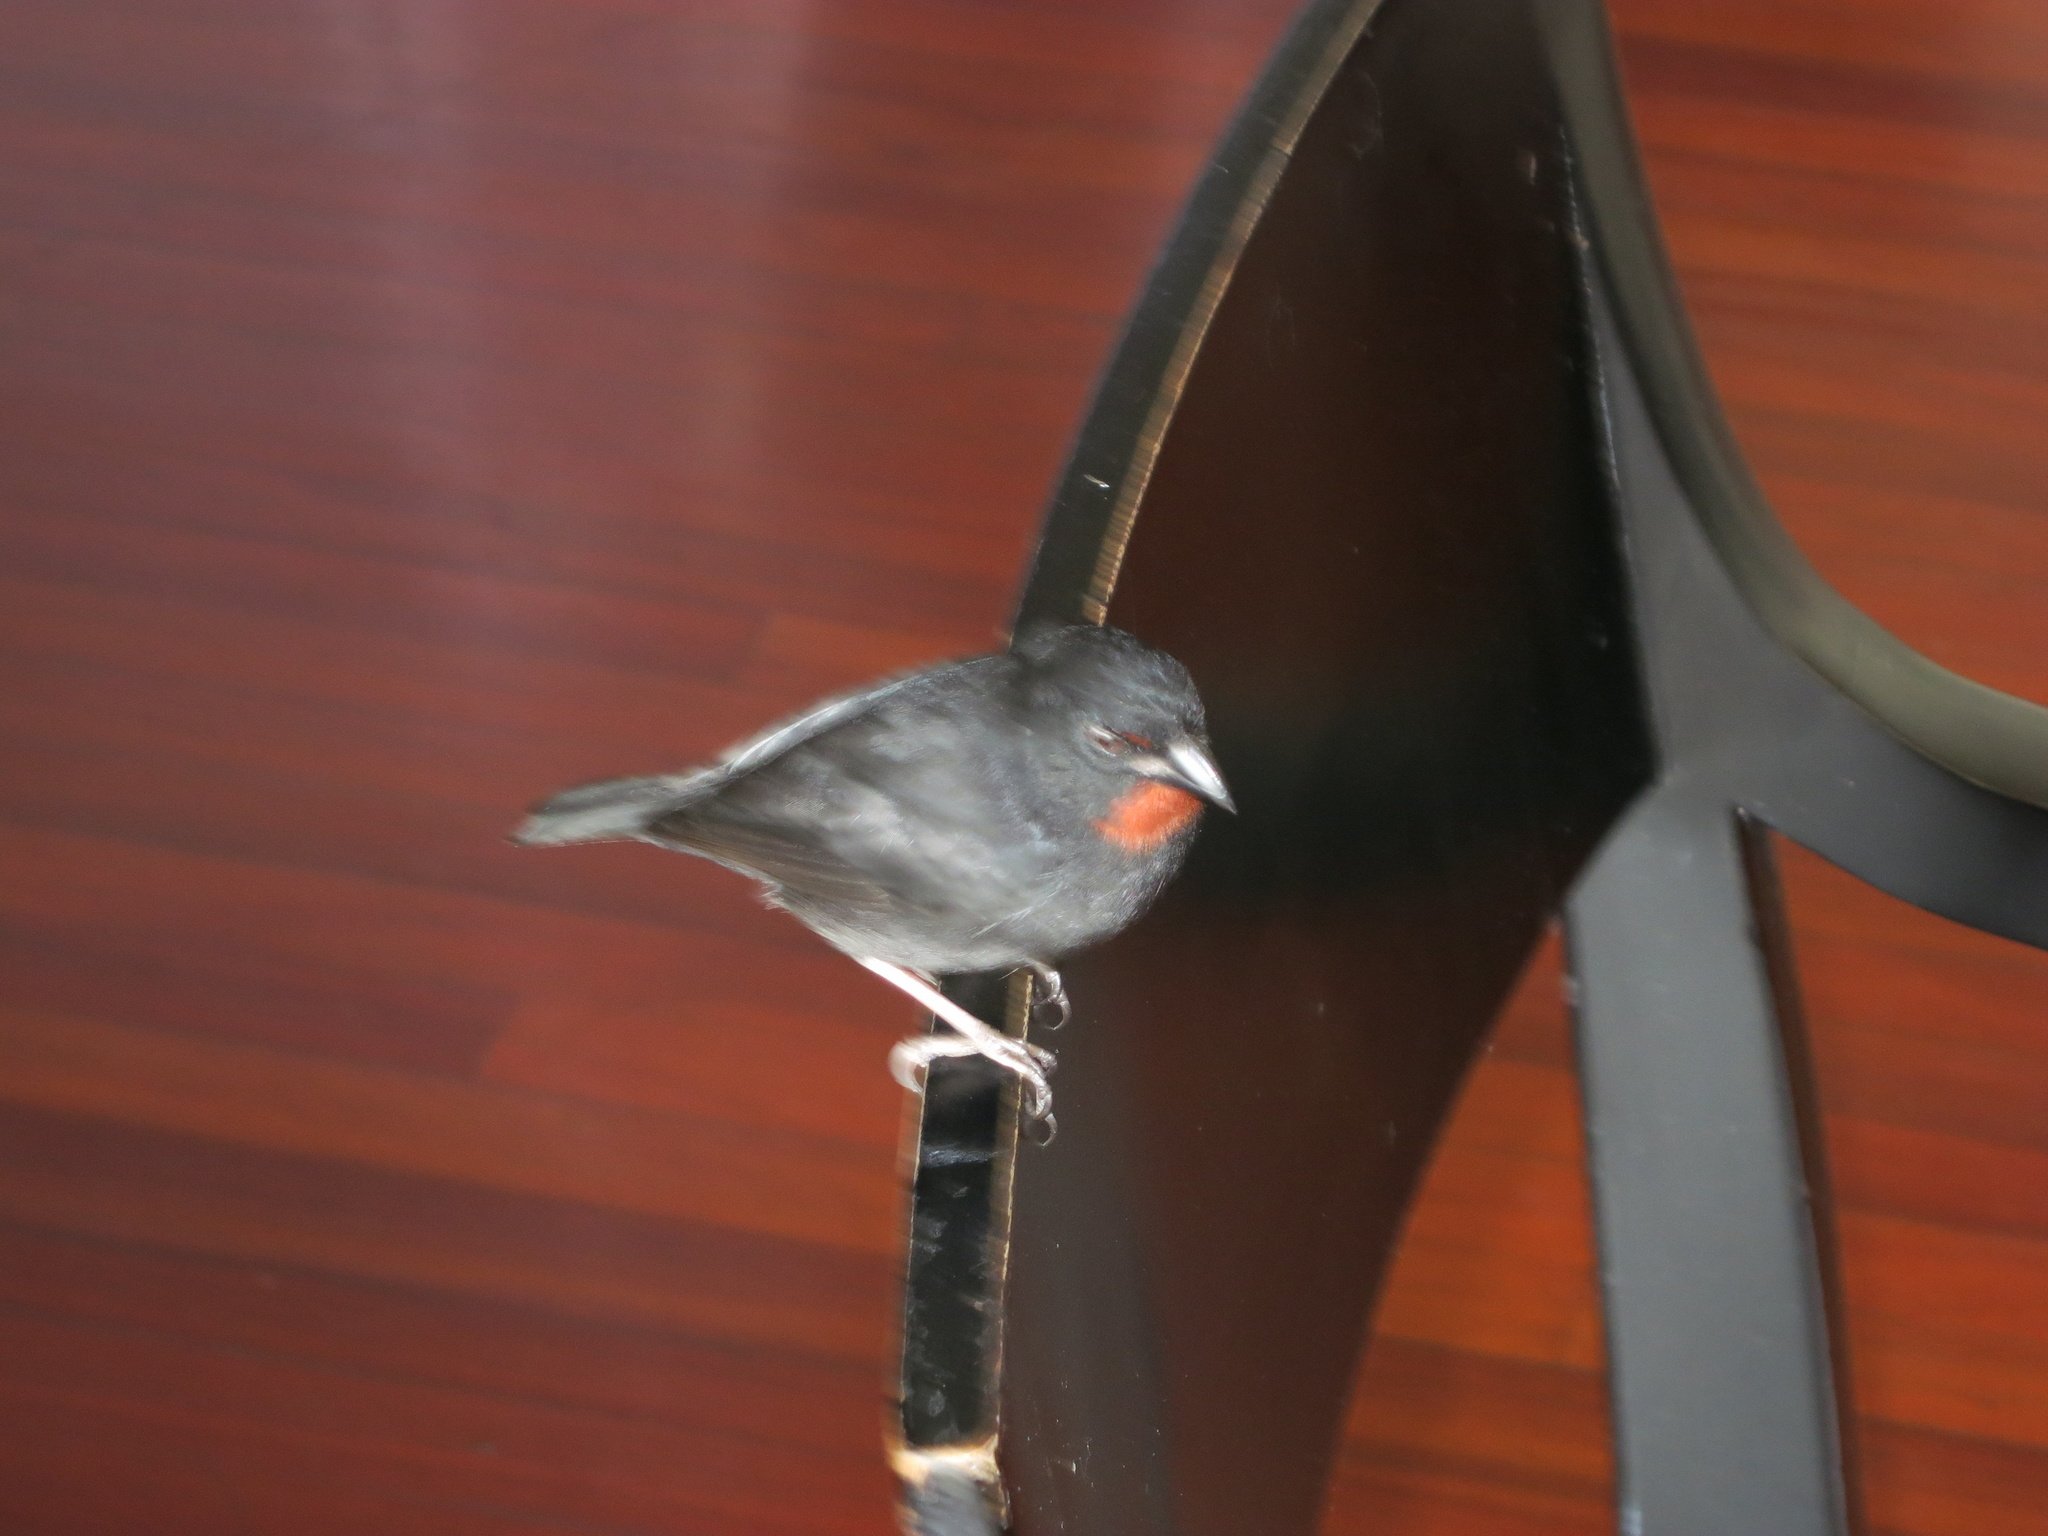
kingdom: Animalia
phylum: Chordata
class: Aves
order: Passeriformes
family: Thraupidae
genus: Loxigilla
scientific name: Loxigilla noctis
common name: Lesser antillean bullfinch
